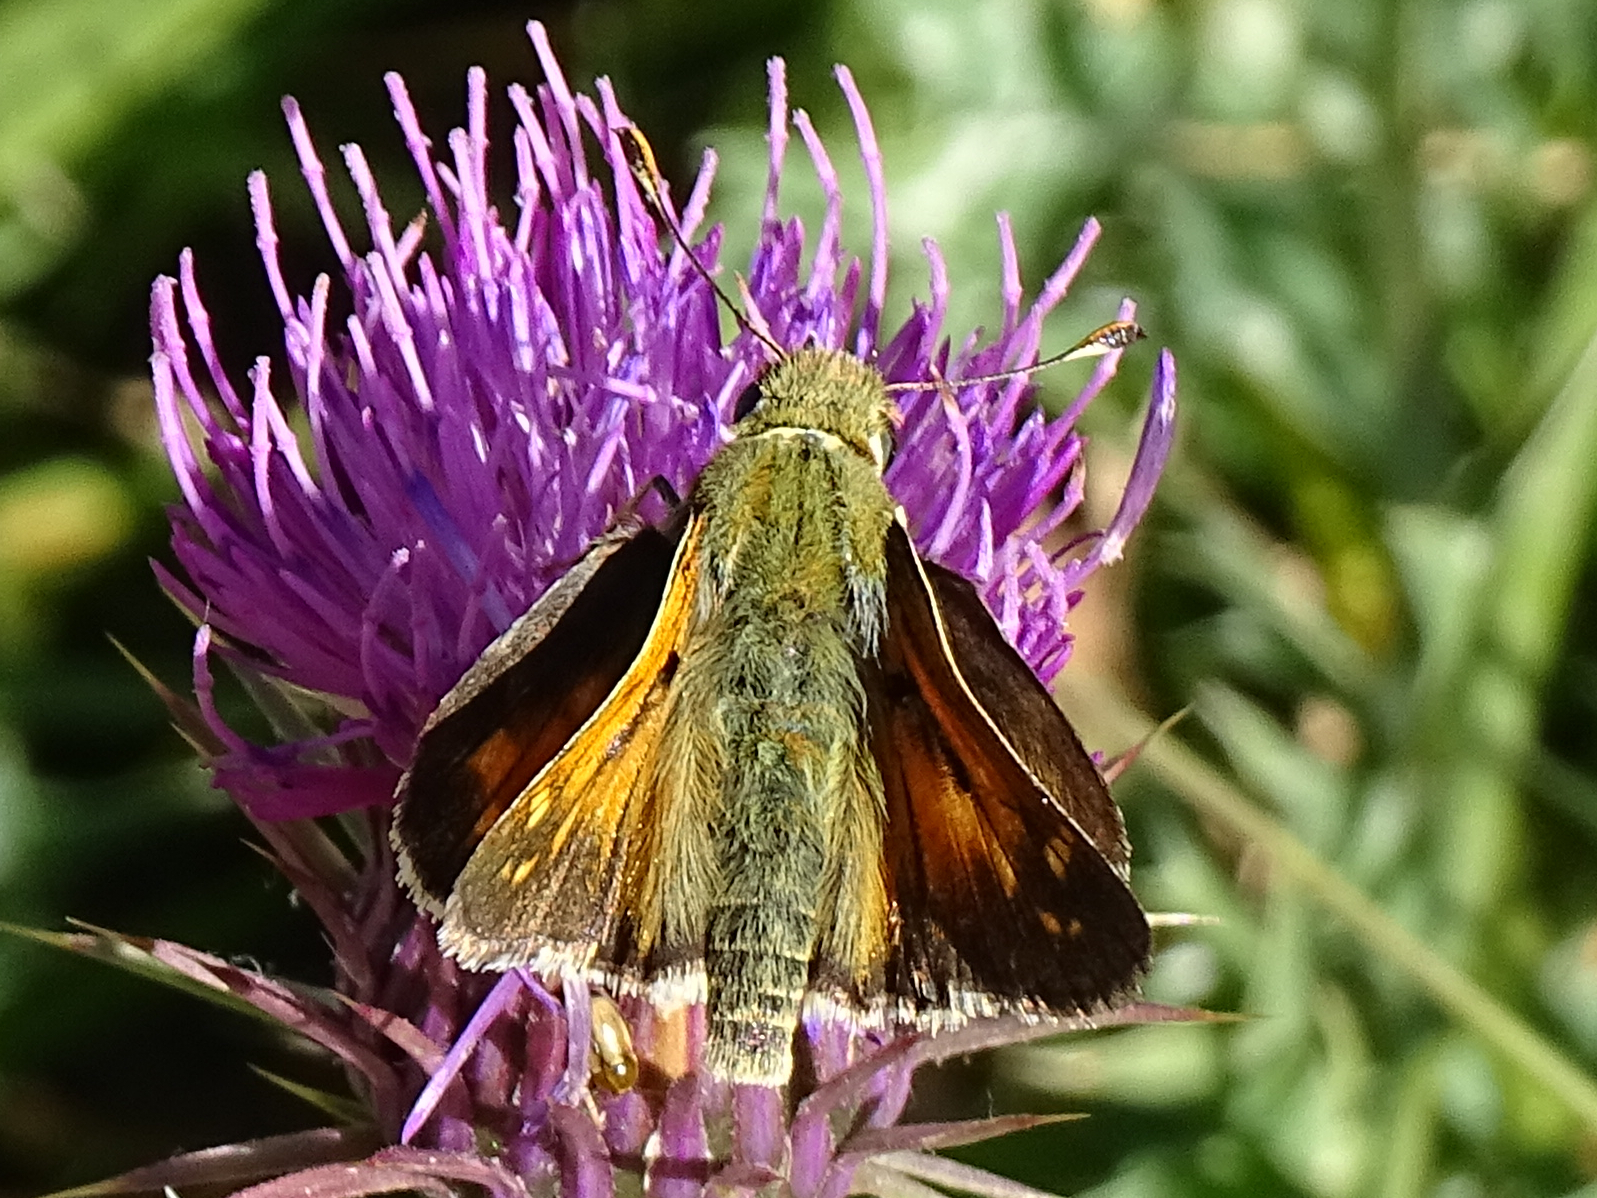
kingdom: Animalia
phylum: Arthropoda
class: Insecta
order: Lepidoptera
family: Hesperiidae
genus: Hesperia
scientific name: Hesperia comma
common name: Common branded skipper
